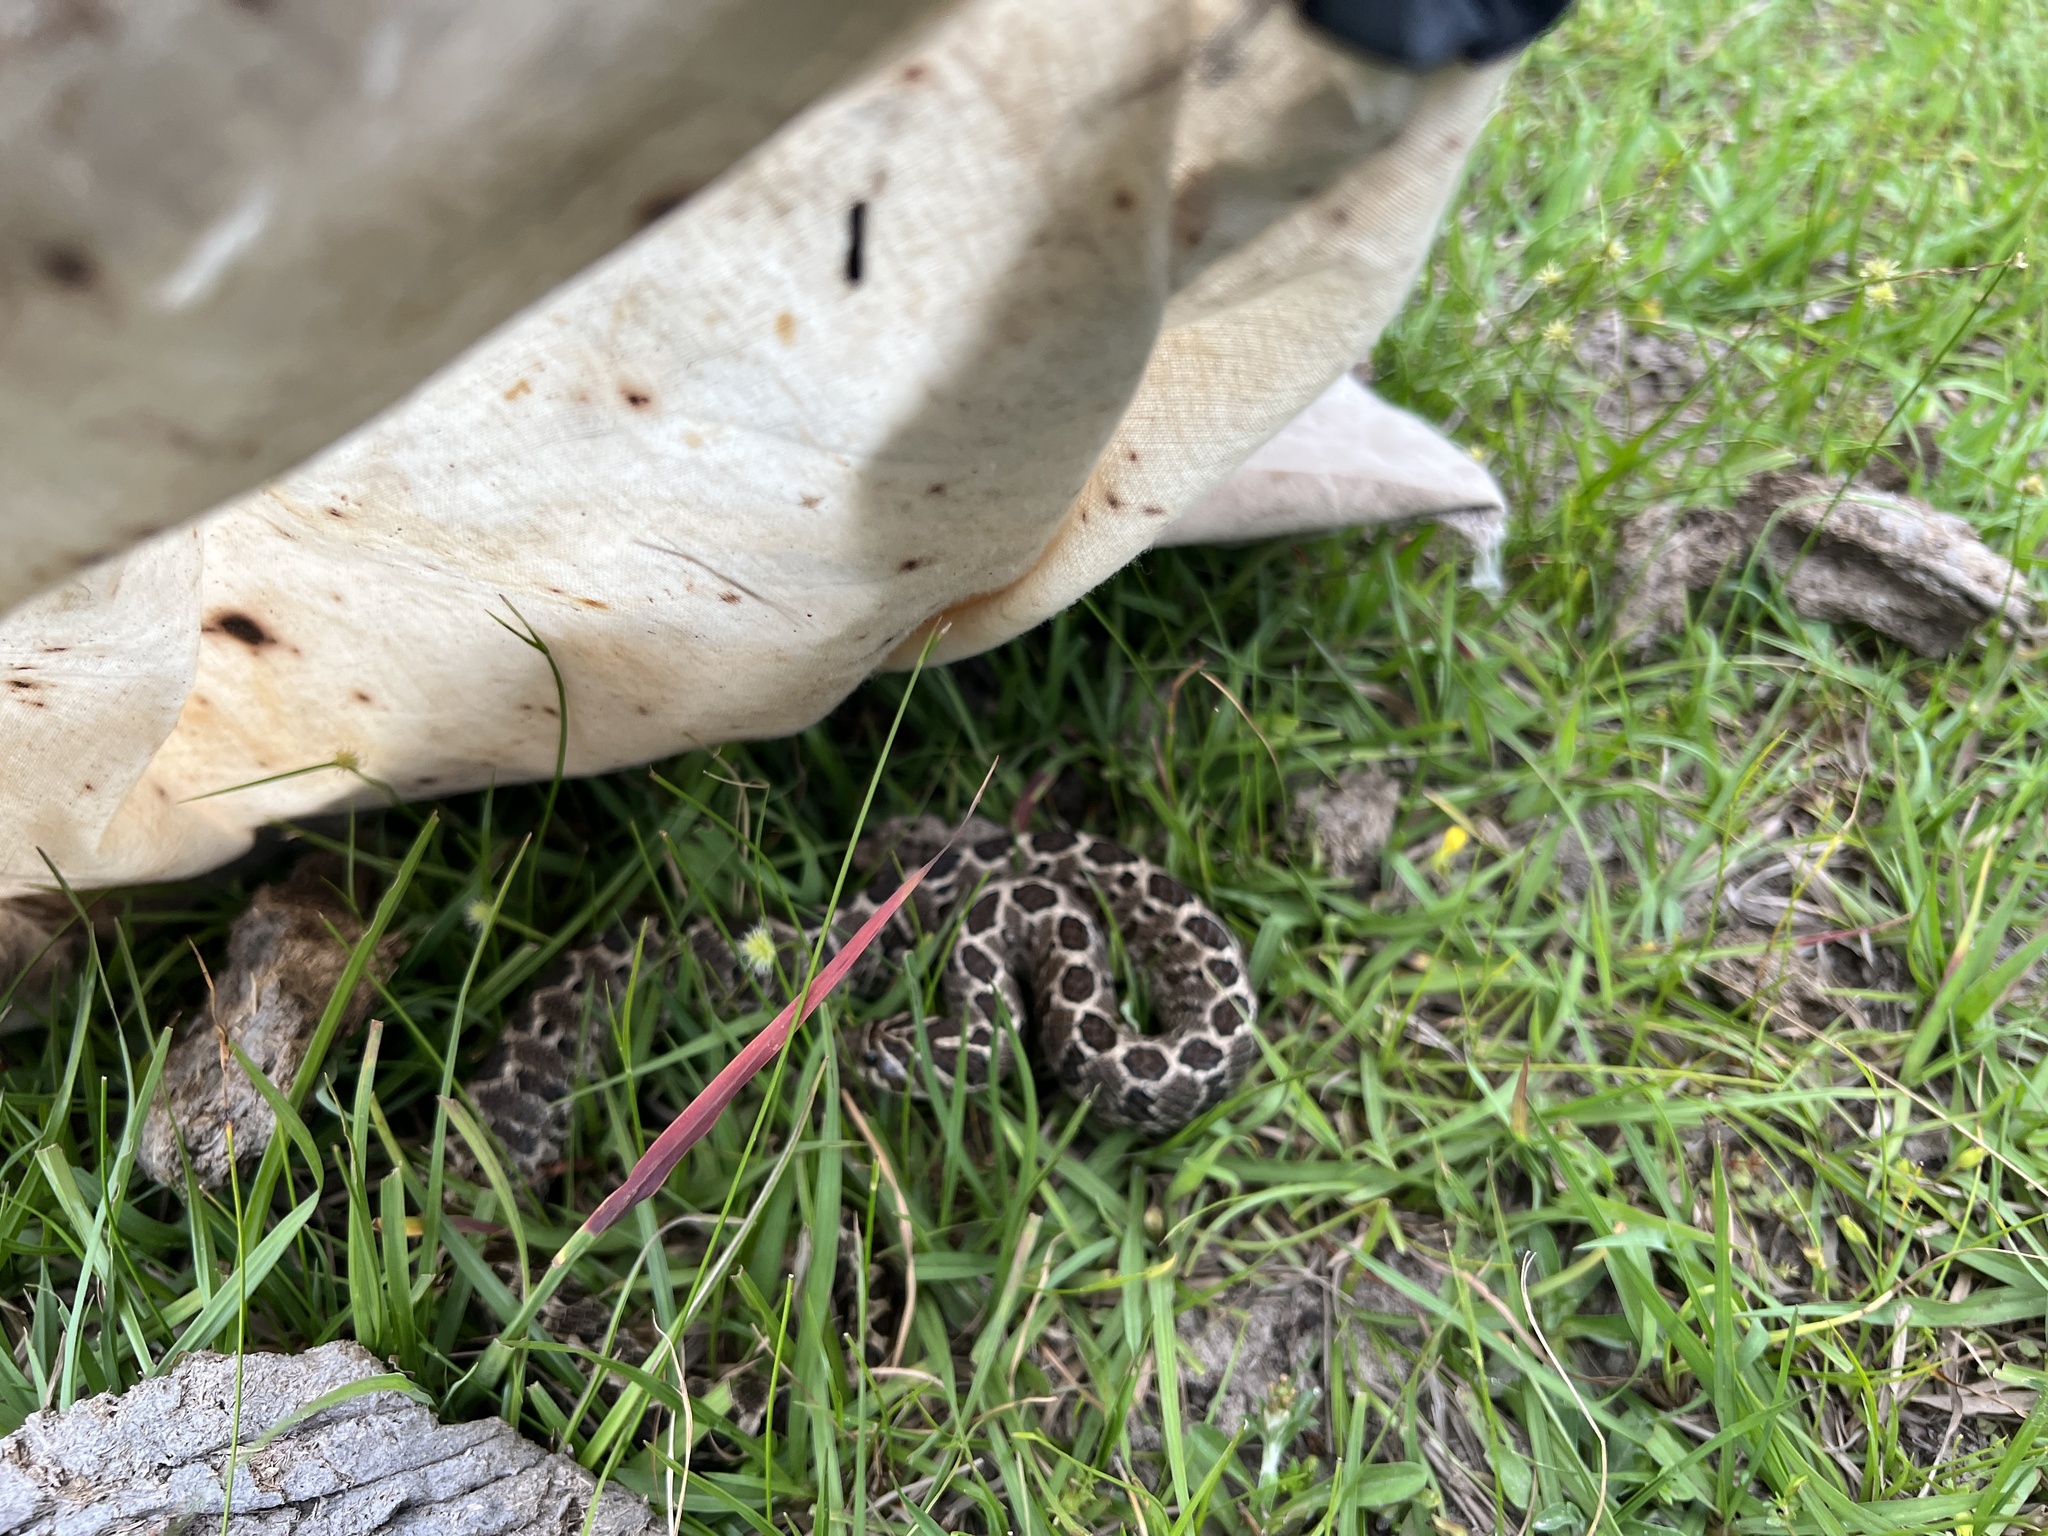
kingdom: Animalia
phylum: Chordata
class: Squamata
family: Colubridae
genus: Xenodon
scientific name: Xenodon dorbignyi
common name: South american hognose snake
